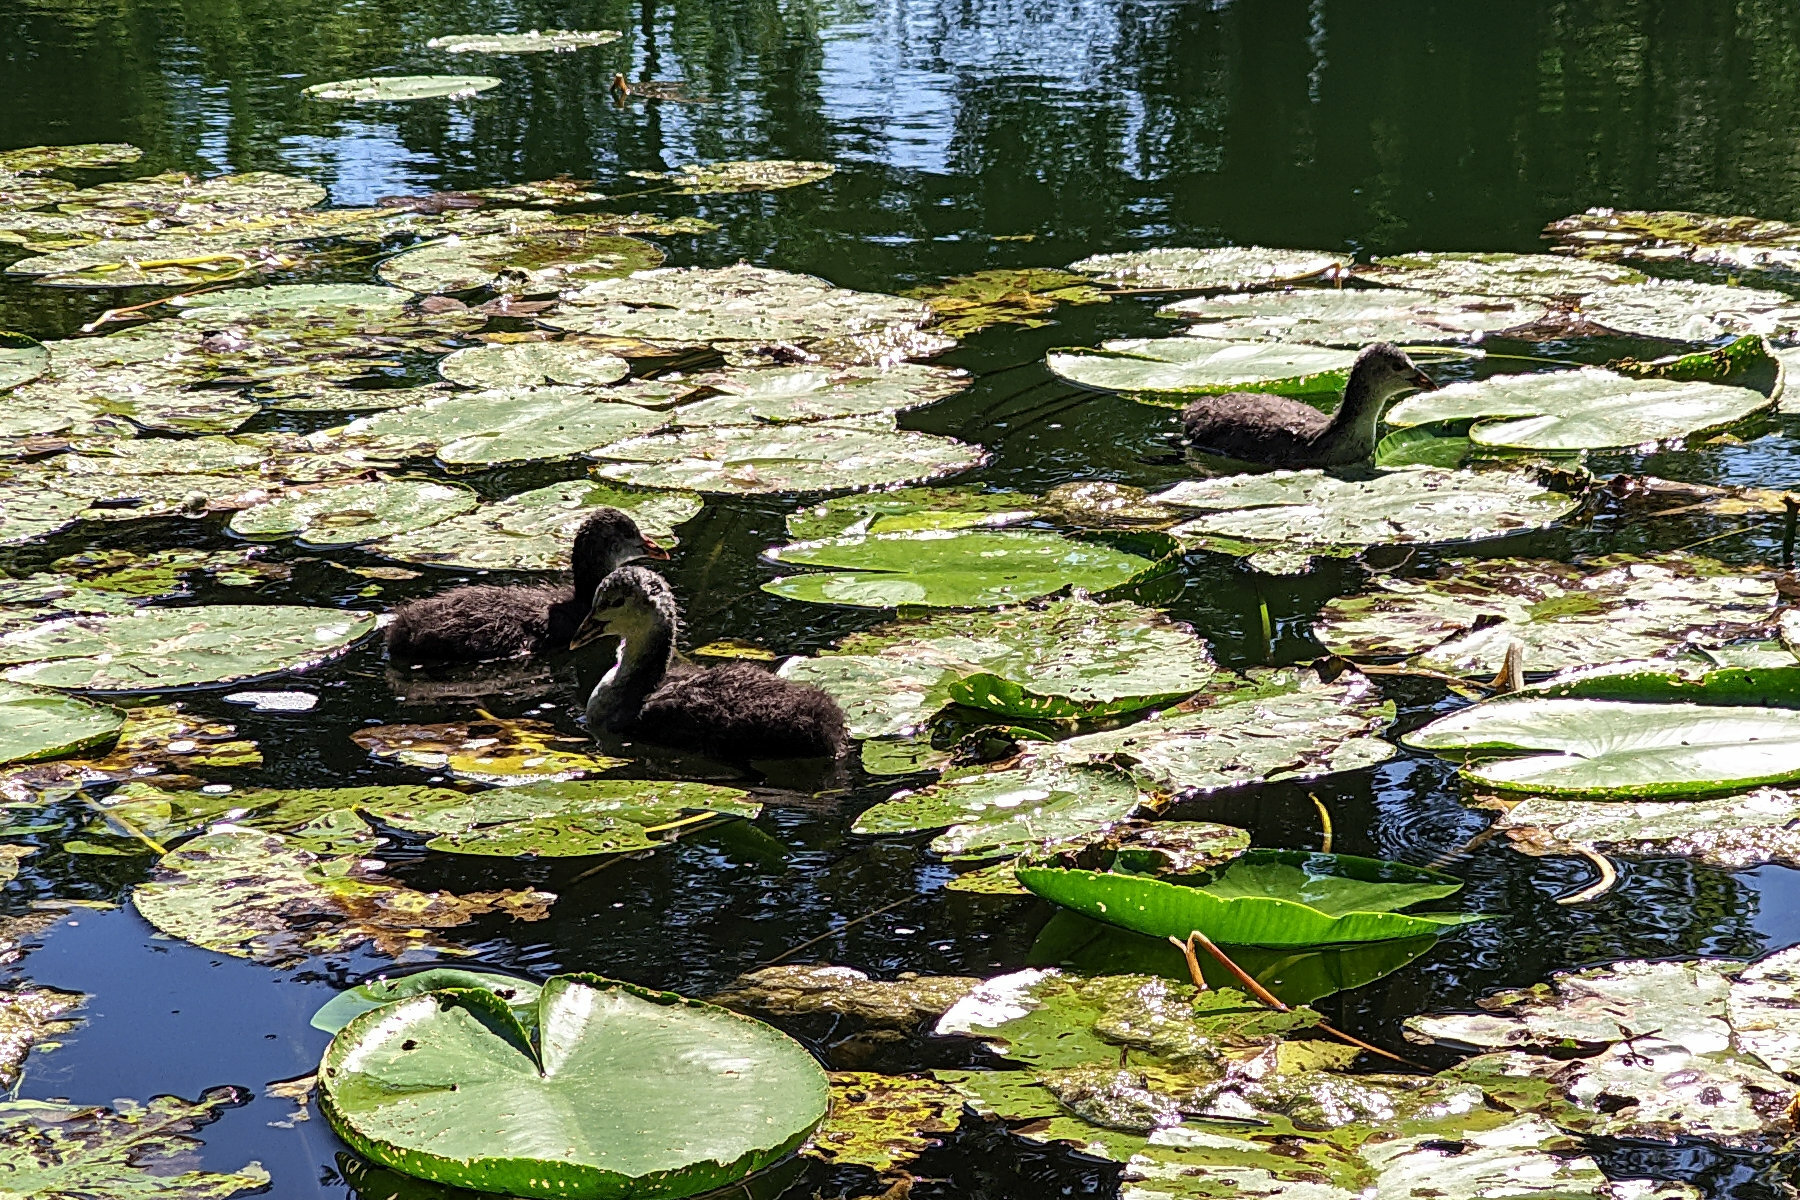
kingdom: Animalia
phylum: Chordata
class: Aves
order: Gruiformes
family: Rallidae
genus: Fulica
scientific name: Fulica atra
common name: Eurasian coot
